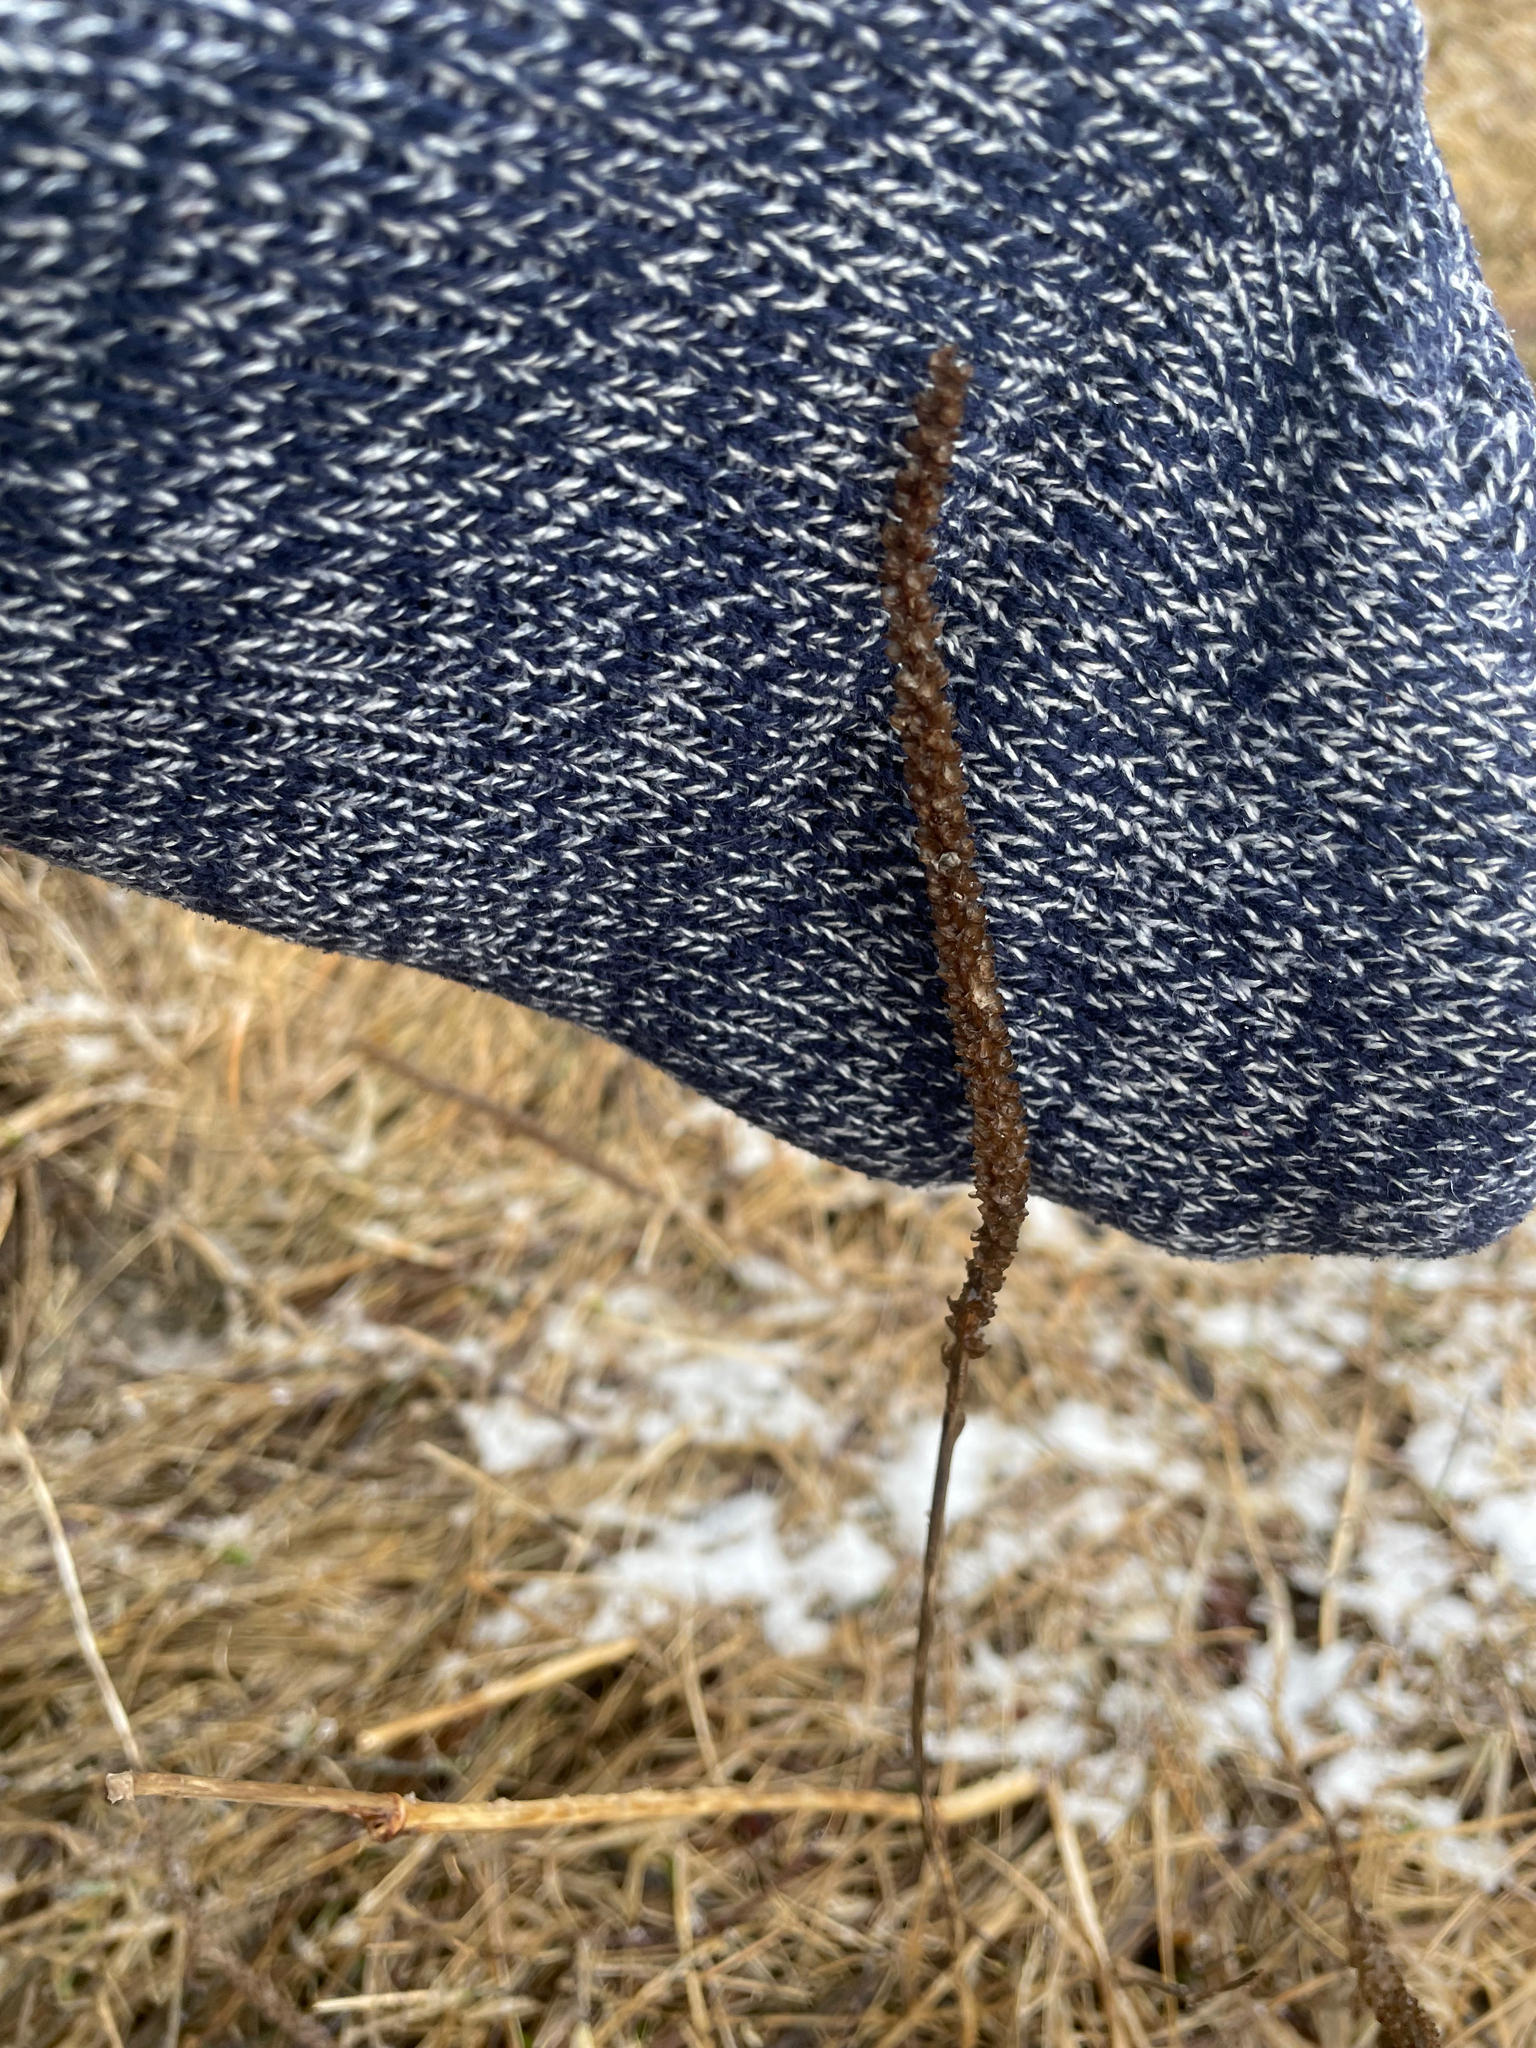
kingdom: Plantae
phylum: Tracheophyta
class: Magnoliopsida
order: Lamiales
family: Plantaginaceae
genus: Plantago
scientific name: Plantago major
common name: Common plantain
